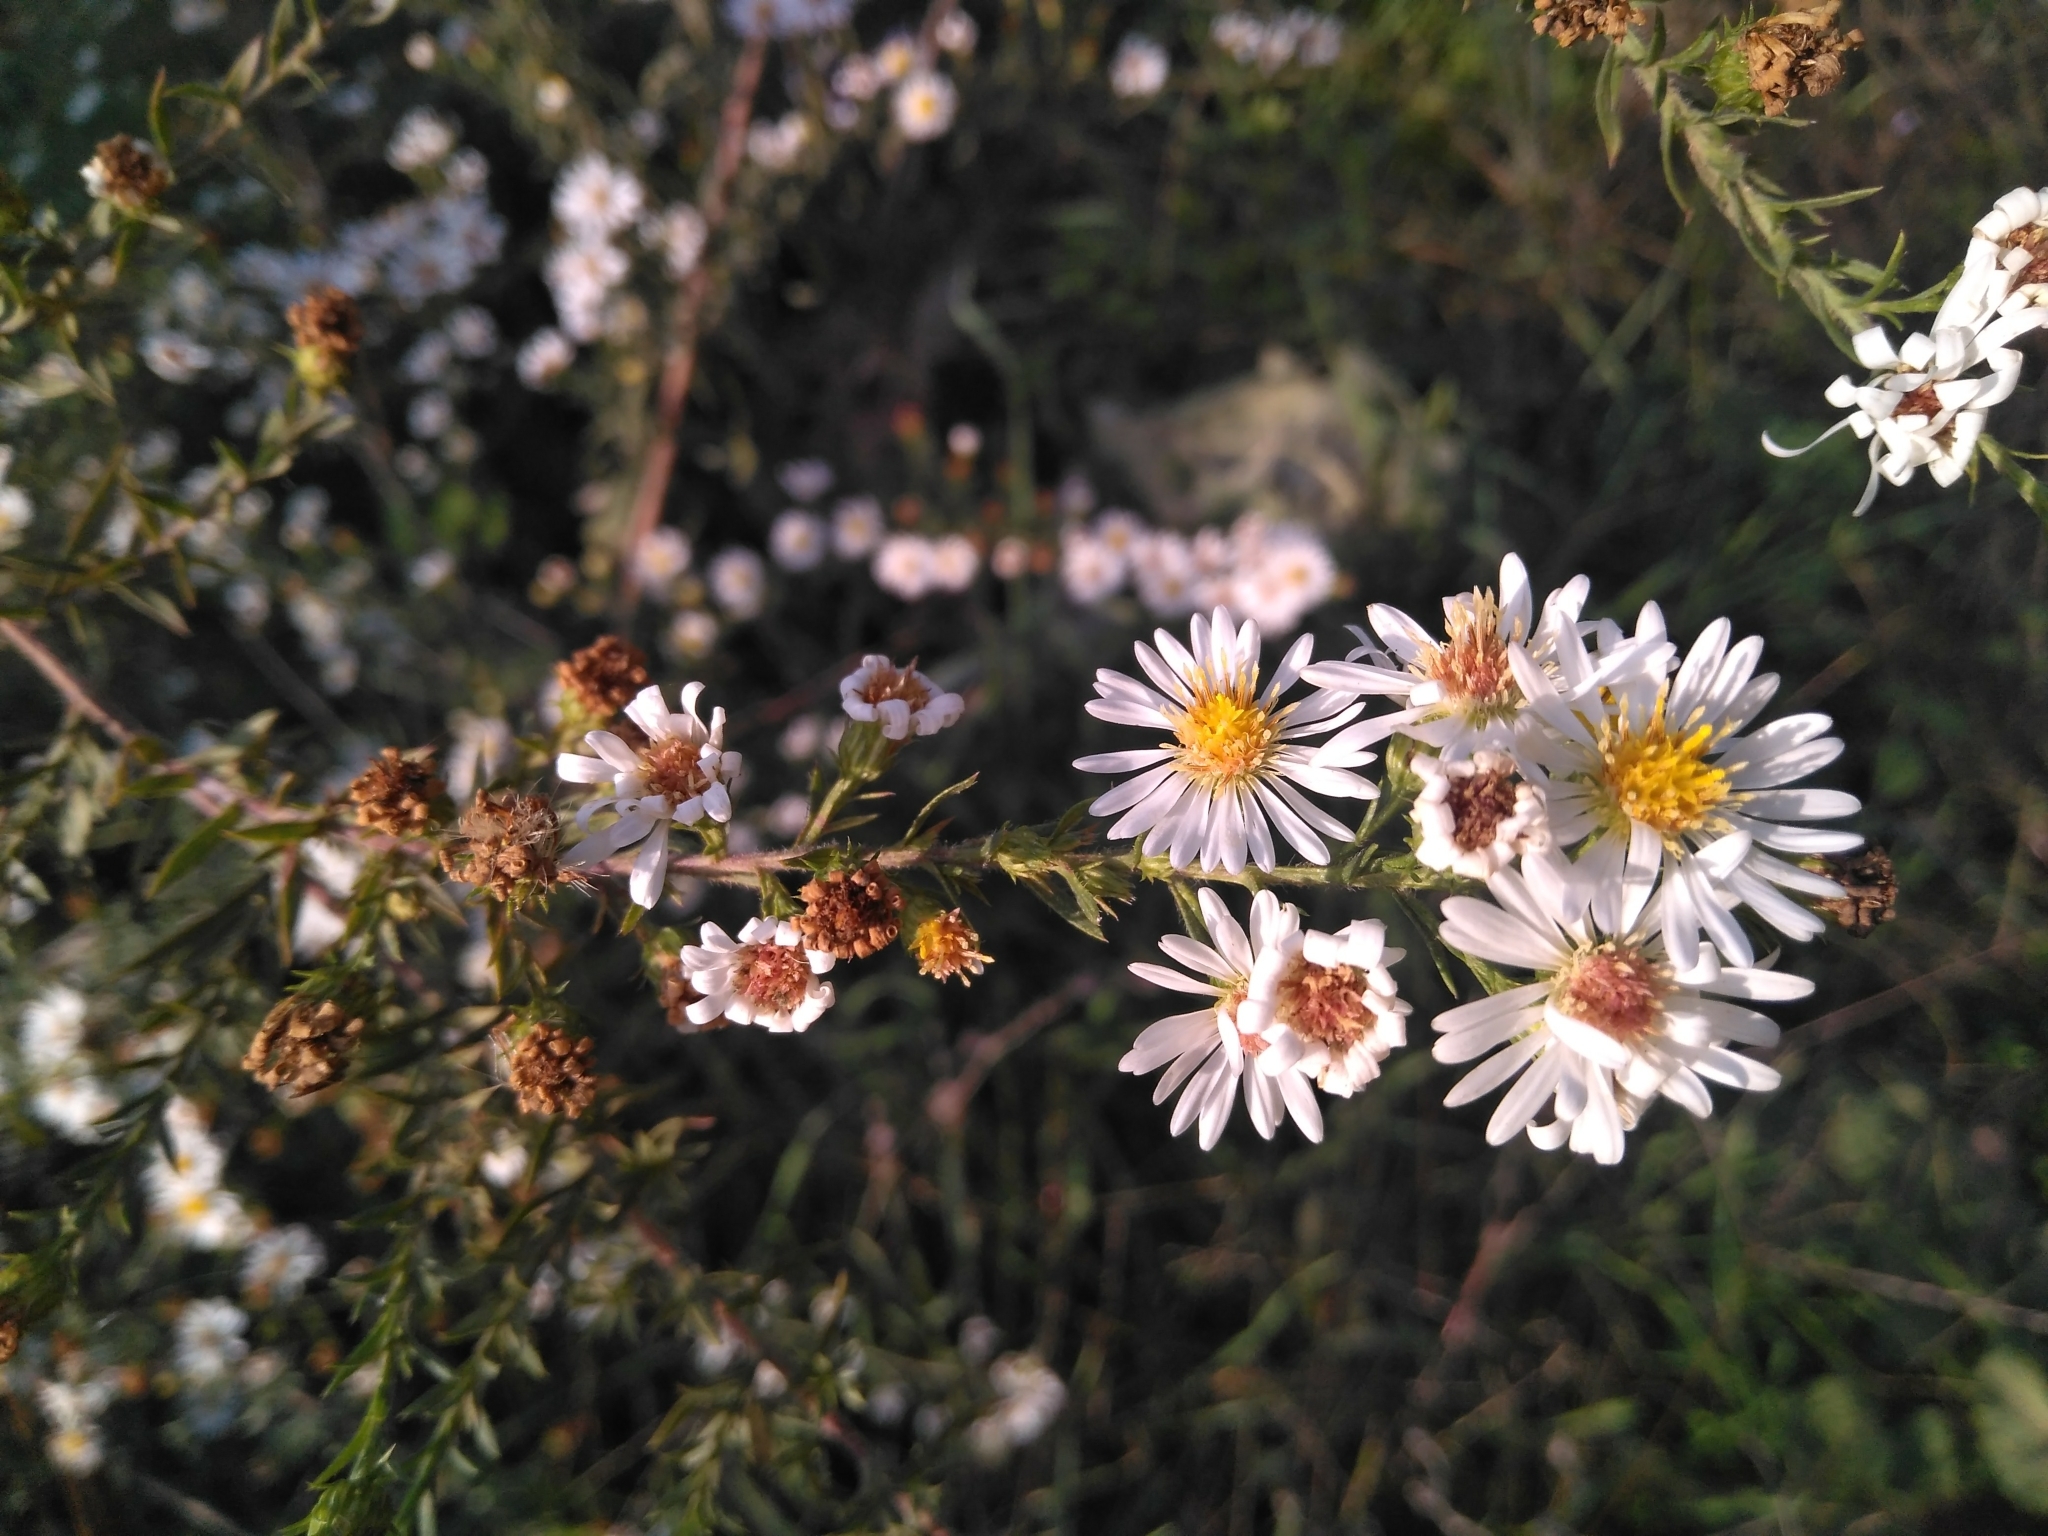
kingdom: Plantae
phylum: Tracheophyta
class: Magnoliopsida
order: Asterales
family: Asteraceae
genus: Symphyotrichum
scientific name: Symphyotrichum pilosum
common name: Awl aster
